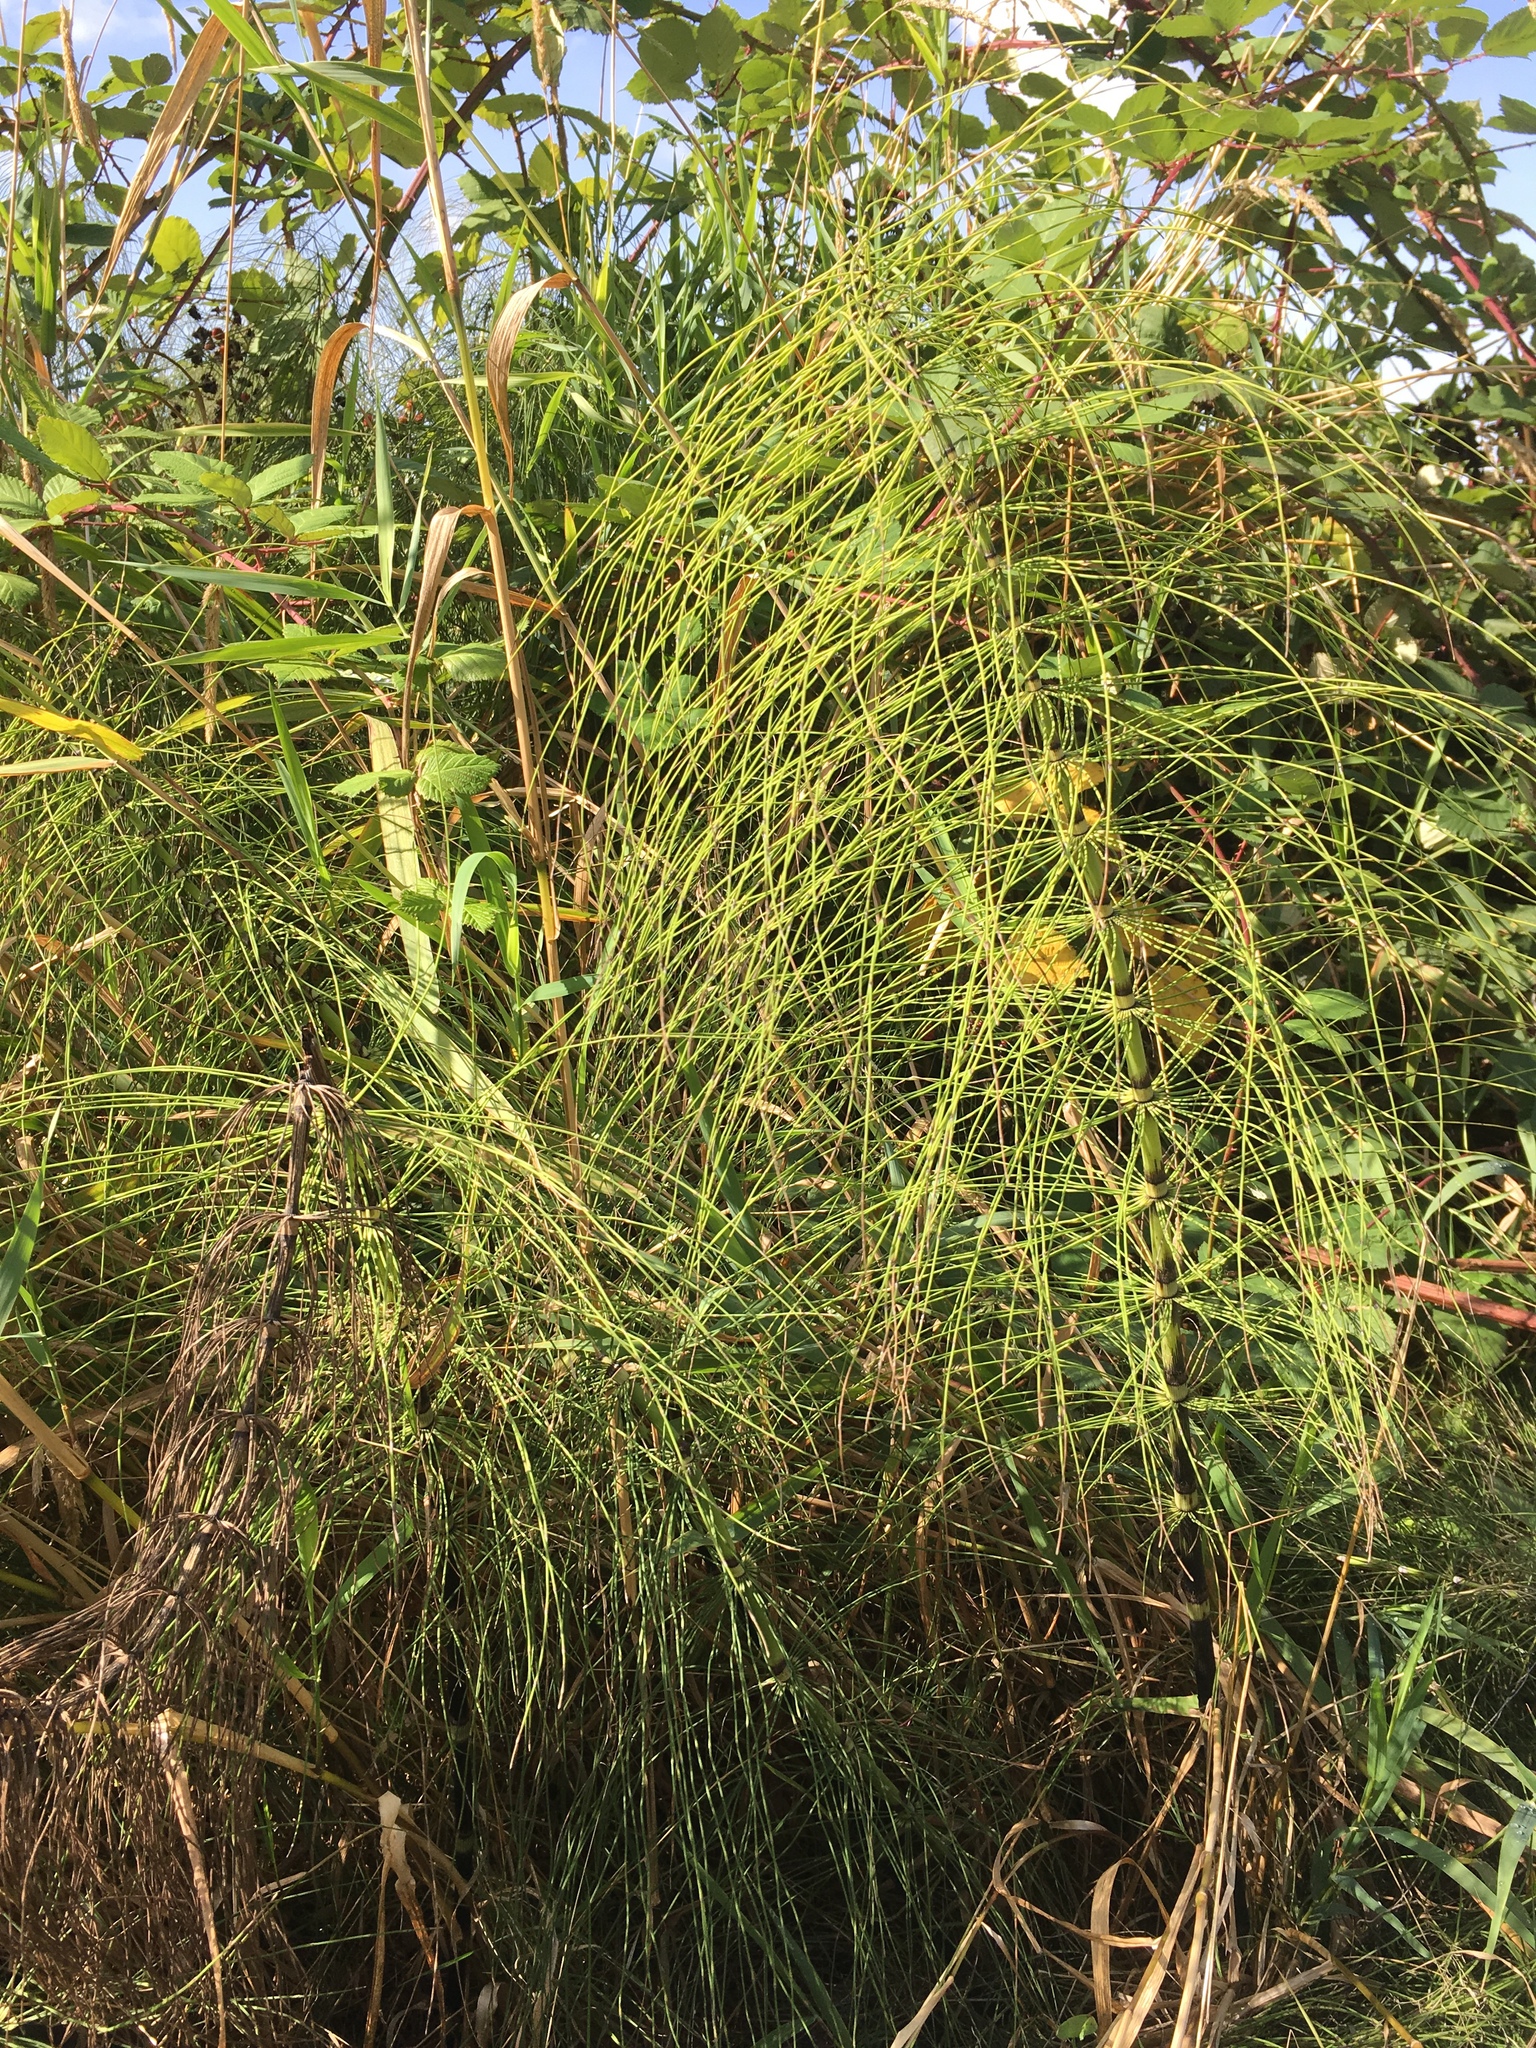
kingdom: Plantae
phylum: Tracheophyta
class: Polypodiopsida
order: Equisetales
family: Equisetaceae
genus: Equisetum
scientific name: Equisetum braunii
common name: Braun's horsetail
